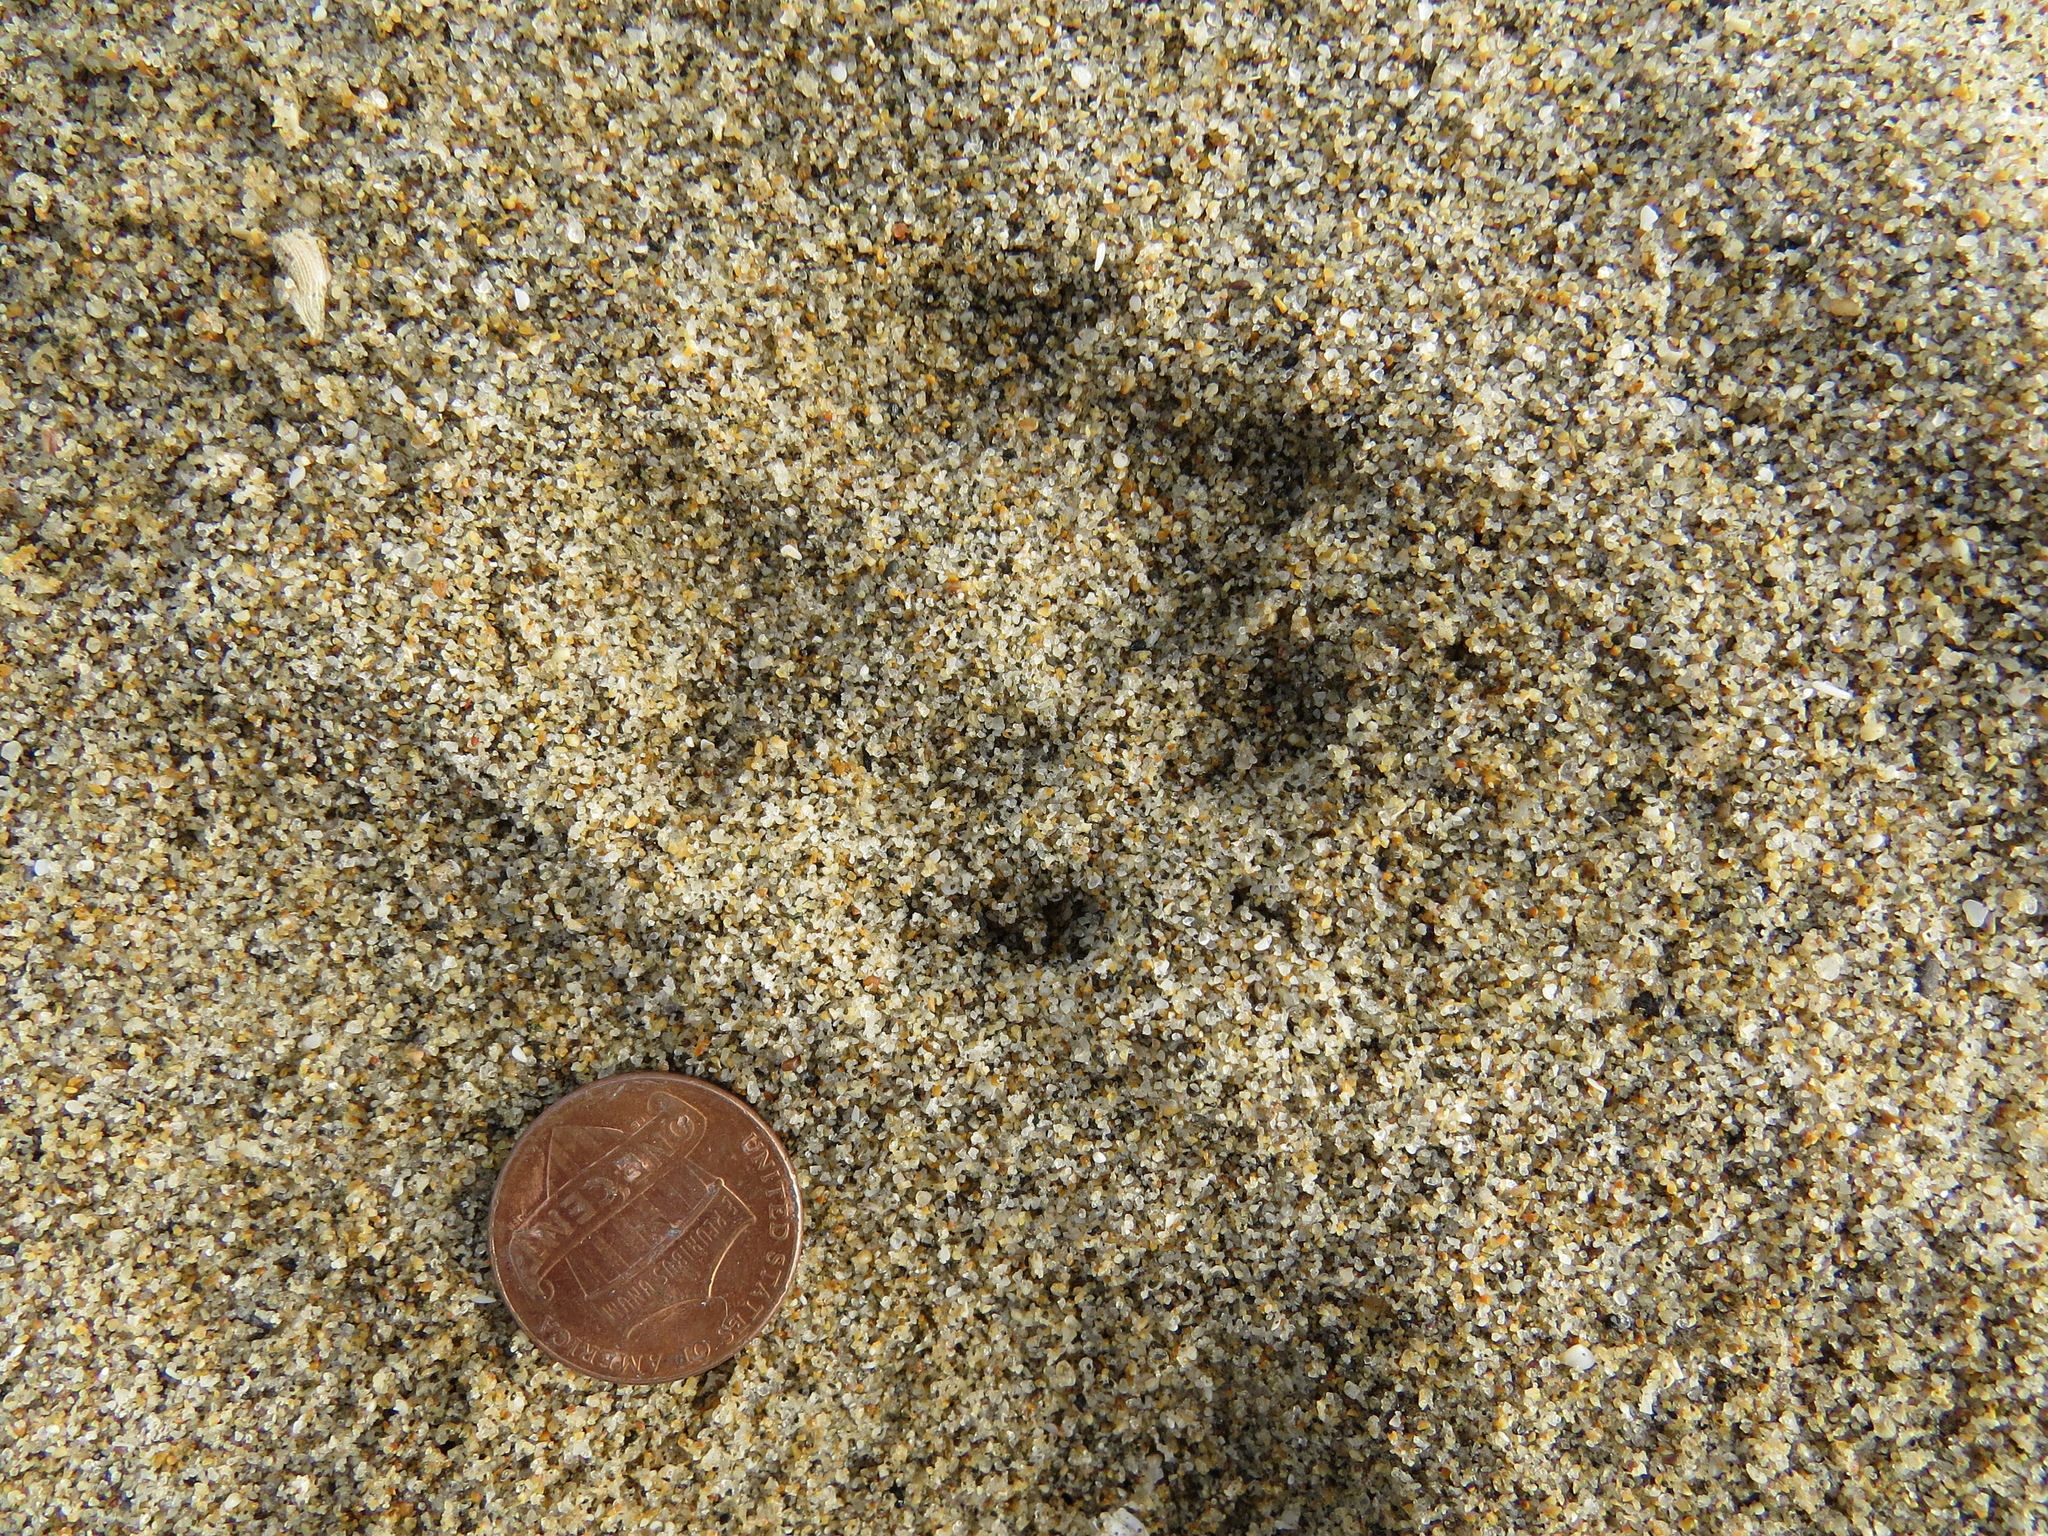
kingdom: Animalia
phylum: Chordata
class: Mammalia
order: Carnivora
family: Canidae
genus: Urocyon
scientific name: Urocyon cinereoargenteus
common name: Gray fox
